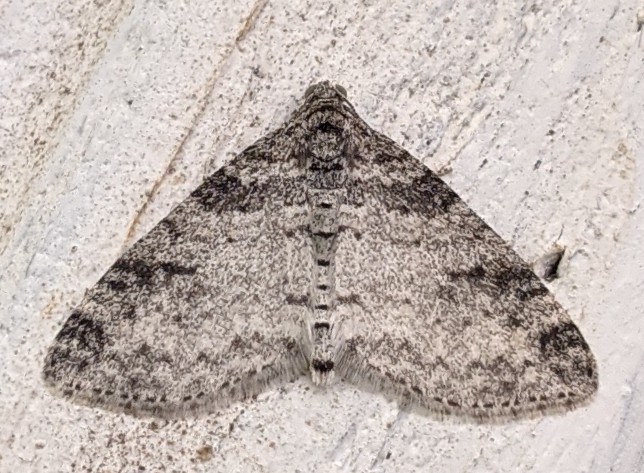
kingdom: Animalia
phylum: Arthropoda
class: Insecta
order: Lepidoptera
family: Geometridae
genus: Lobophora
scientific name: Lobophora nivigerata
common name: Powdered bigwing
